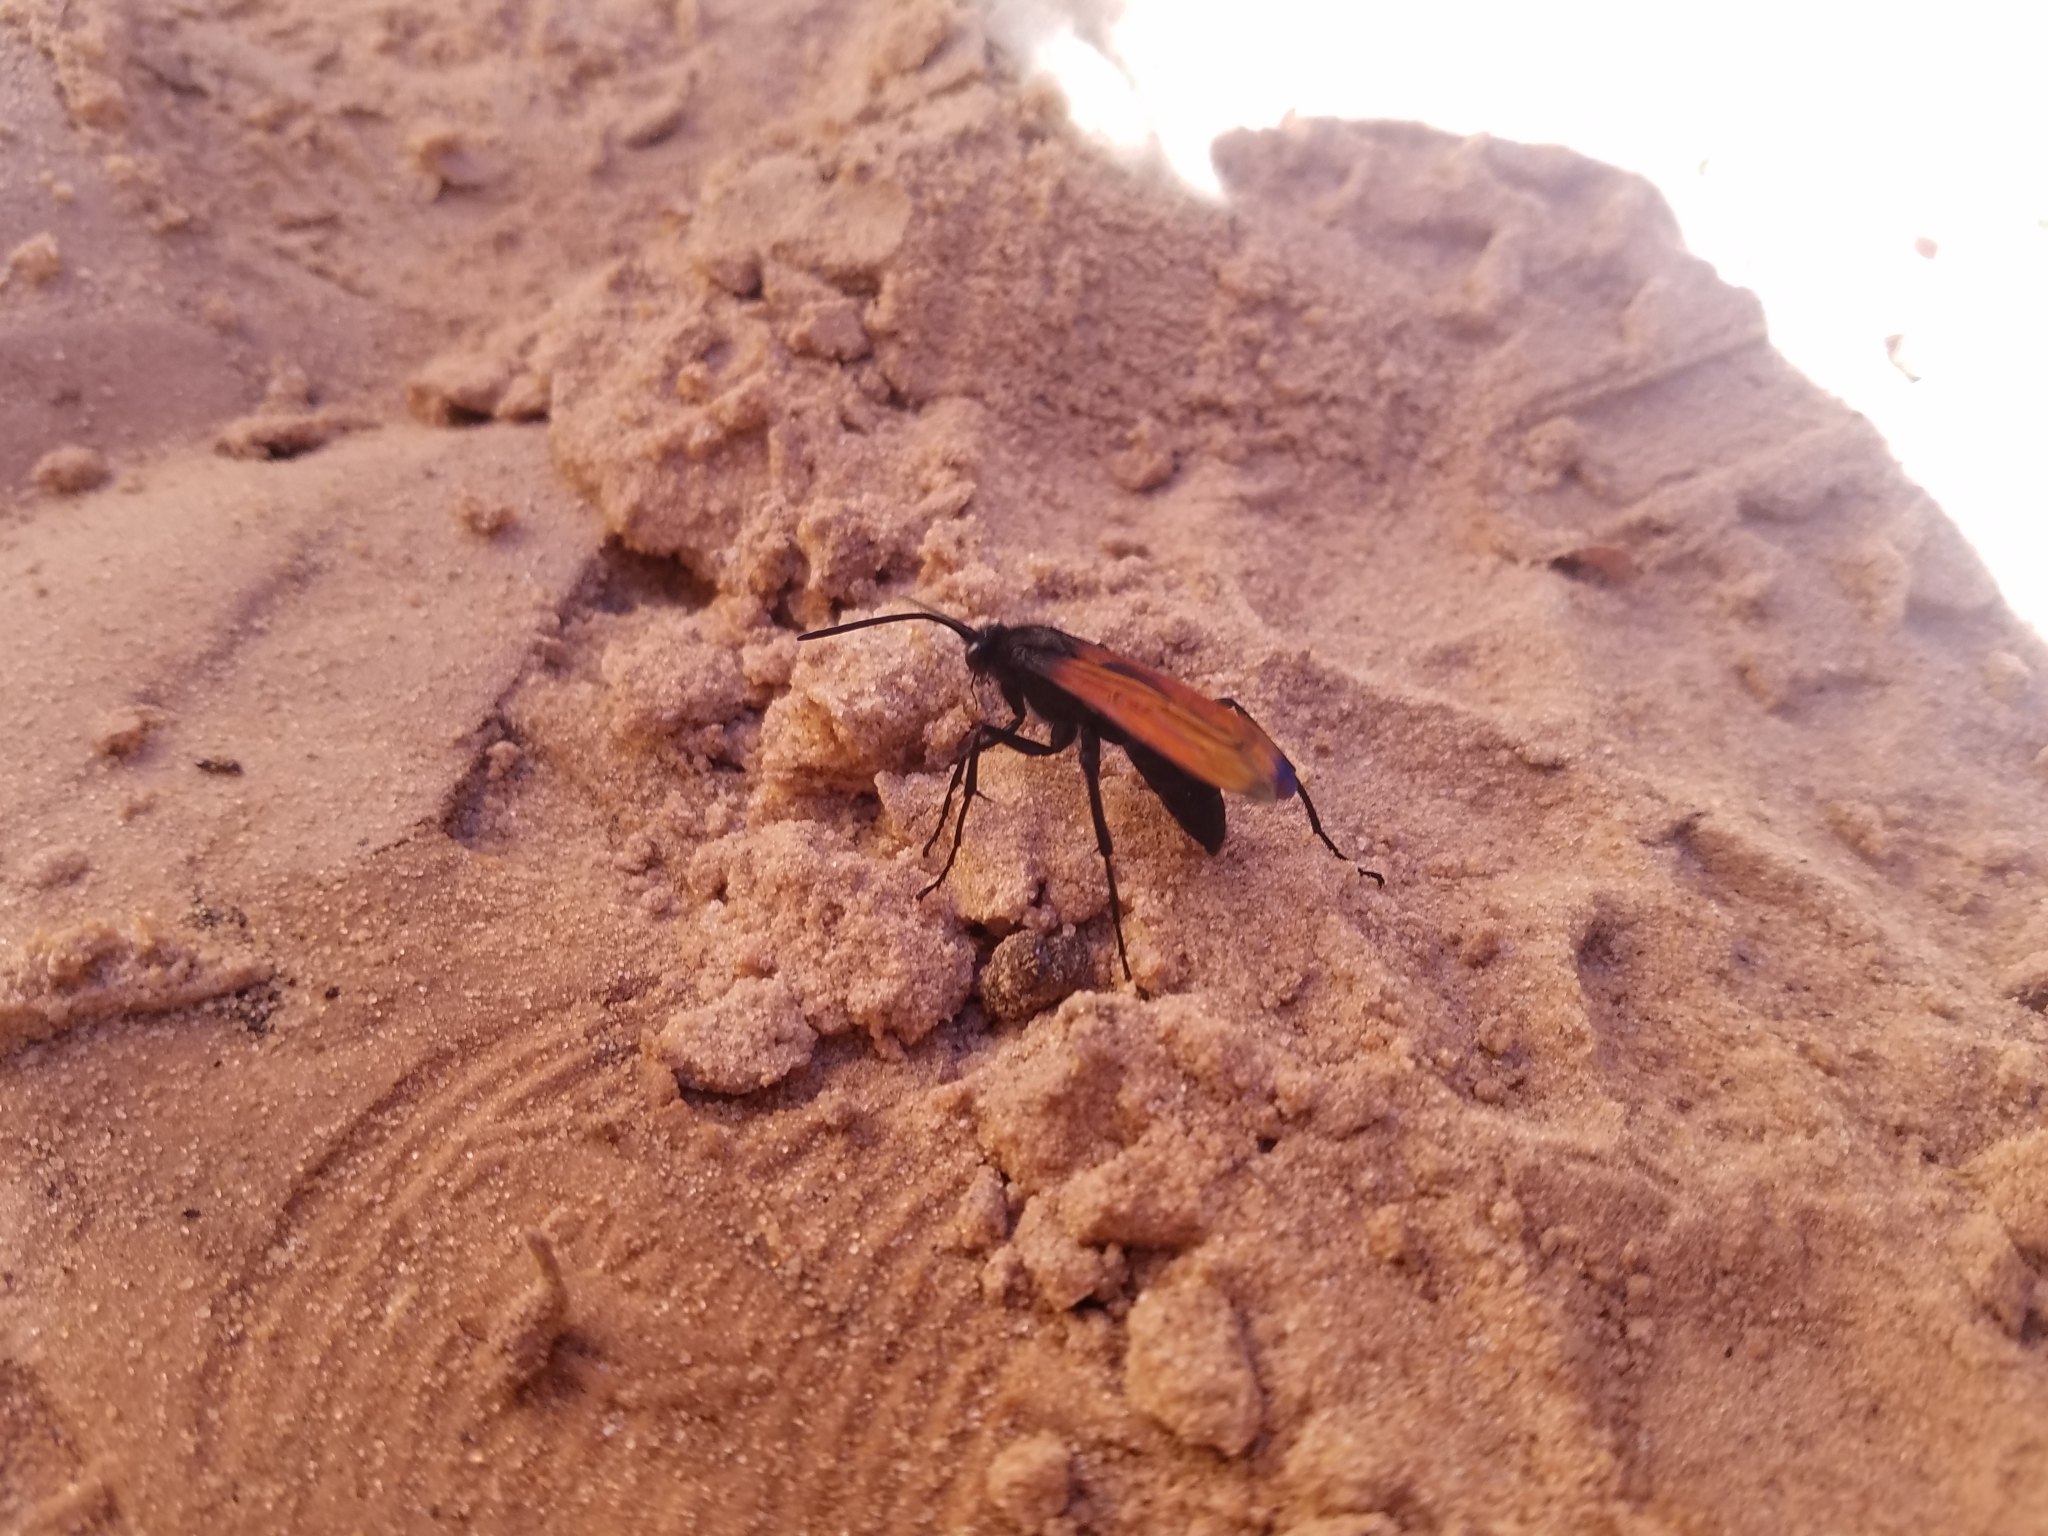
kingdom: Animalia
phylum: Arthropoda
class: Insecta
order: Hymenoptera
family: Pompilidae
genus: Pepsis
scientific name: Pepsis thisbe
